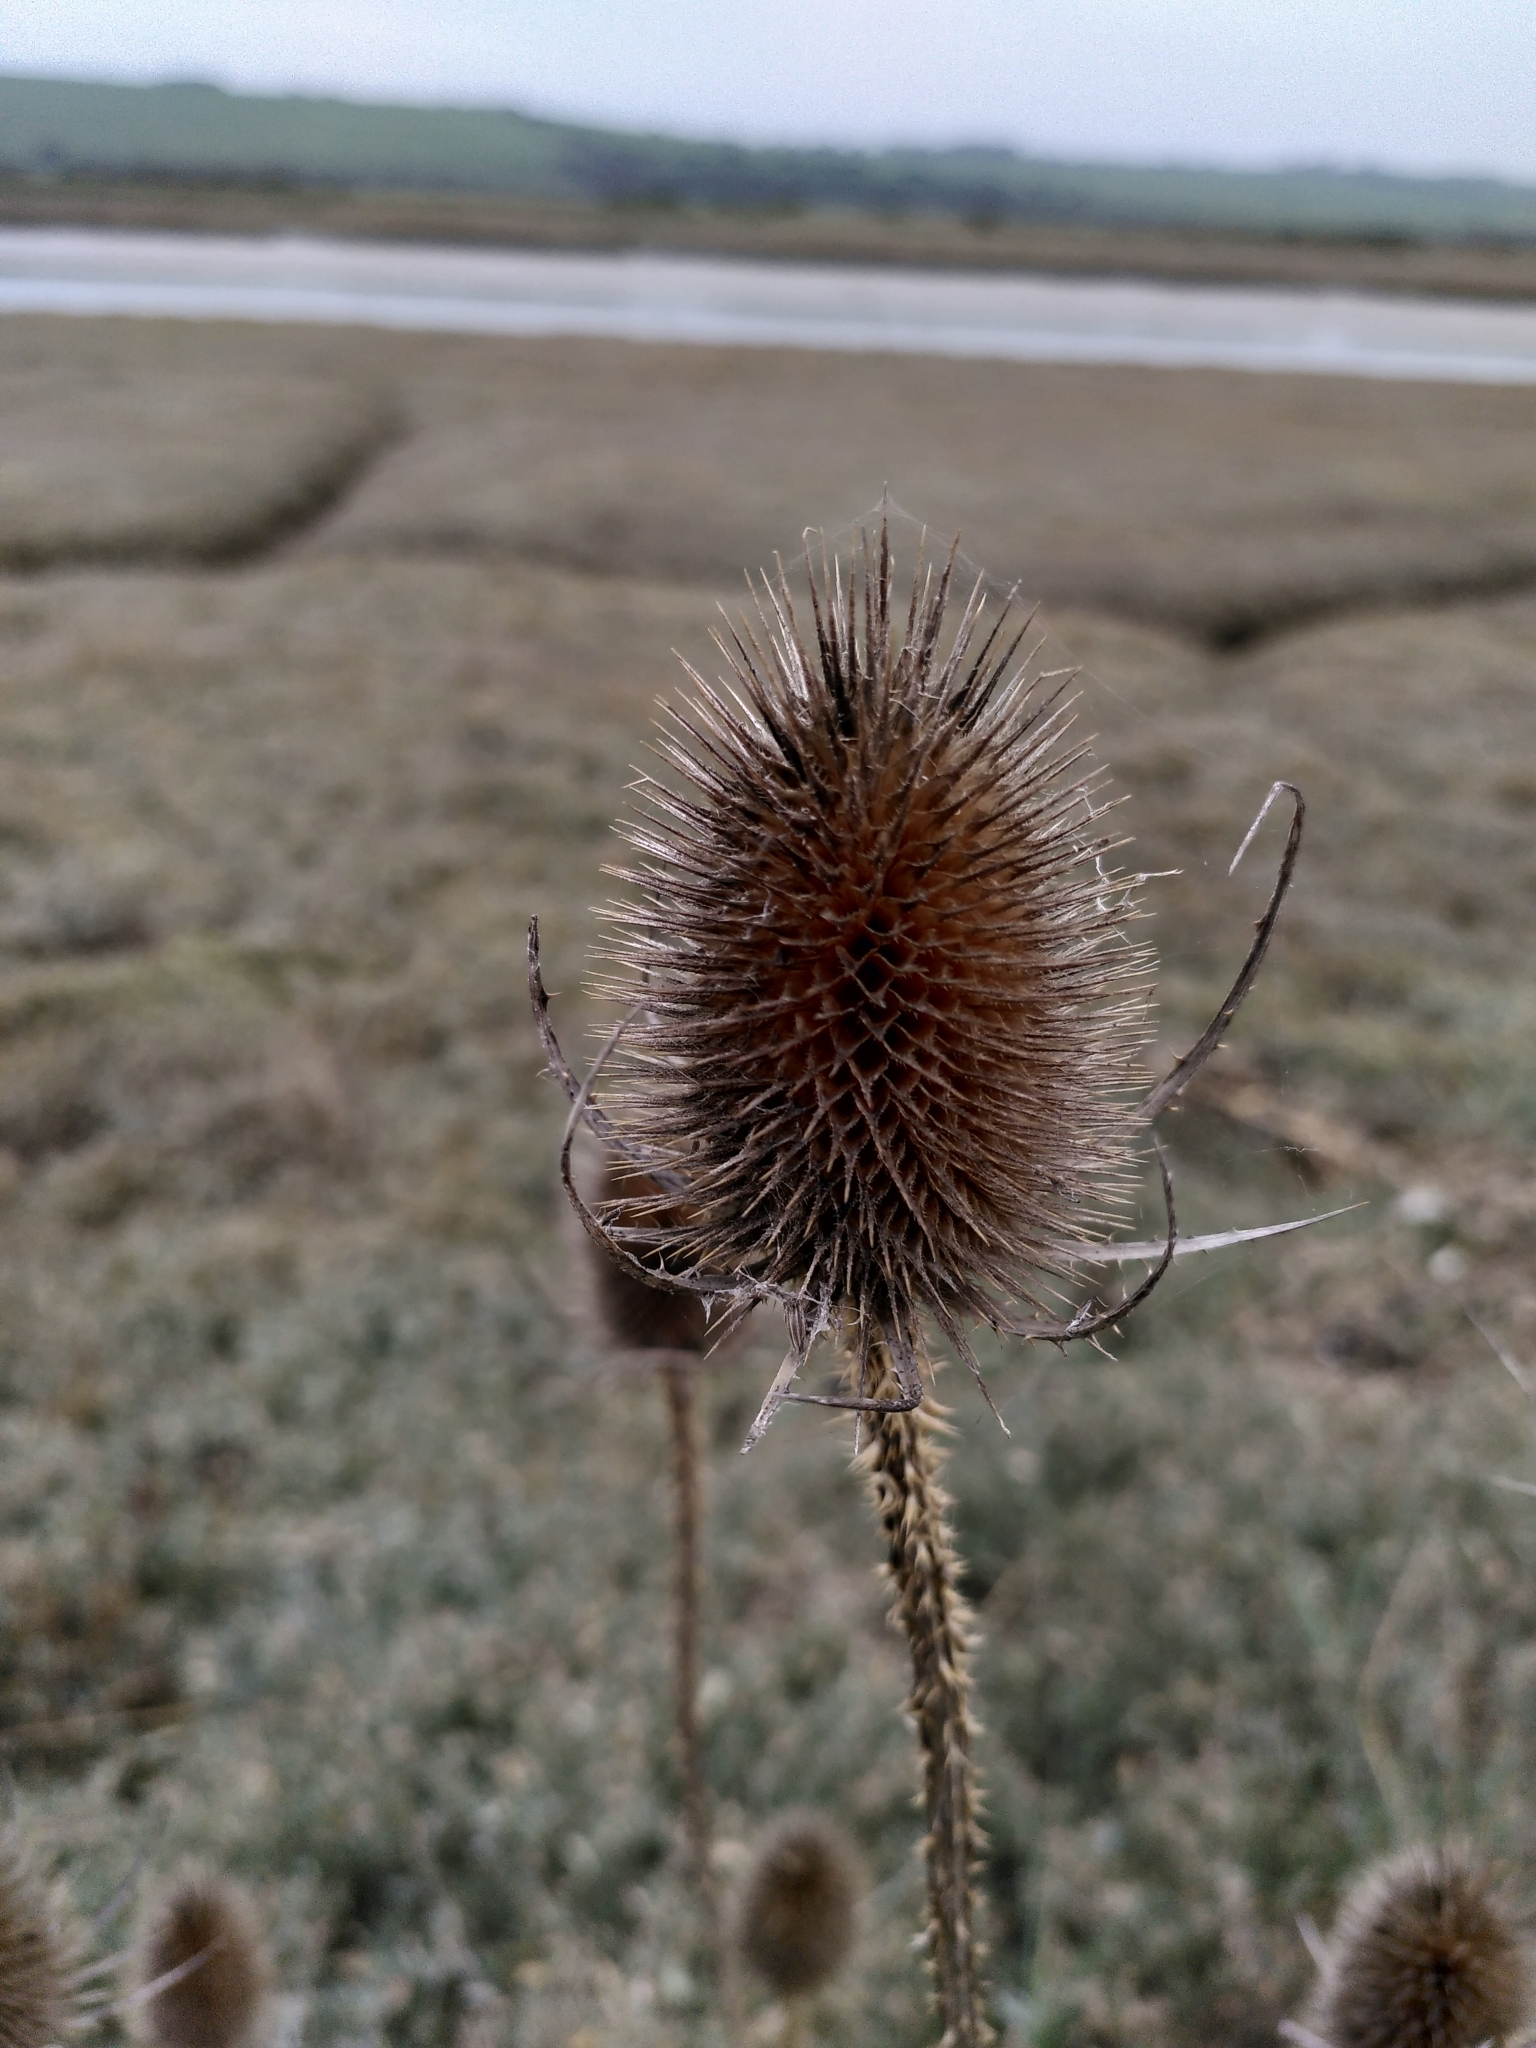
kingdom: Plantae
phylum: Tracheophyta
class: Magnoliopsida
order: Dipsacales
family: Caprifoliaceae
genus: Dipsacus
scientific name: Dipsacus fullonum
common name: Teasel
